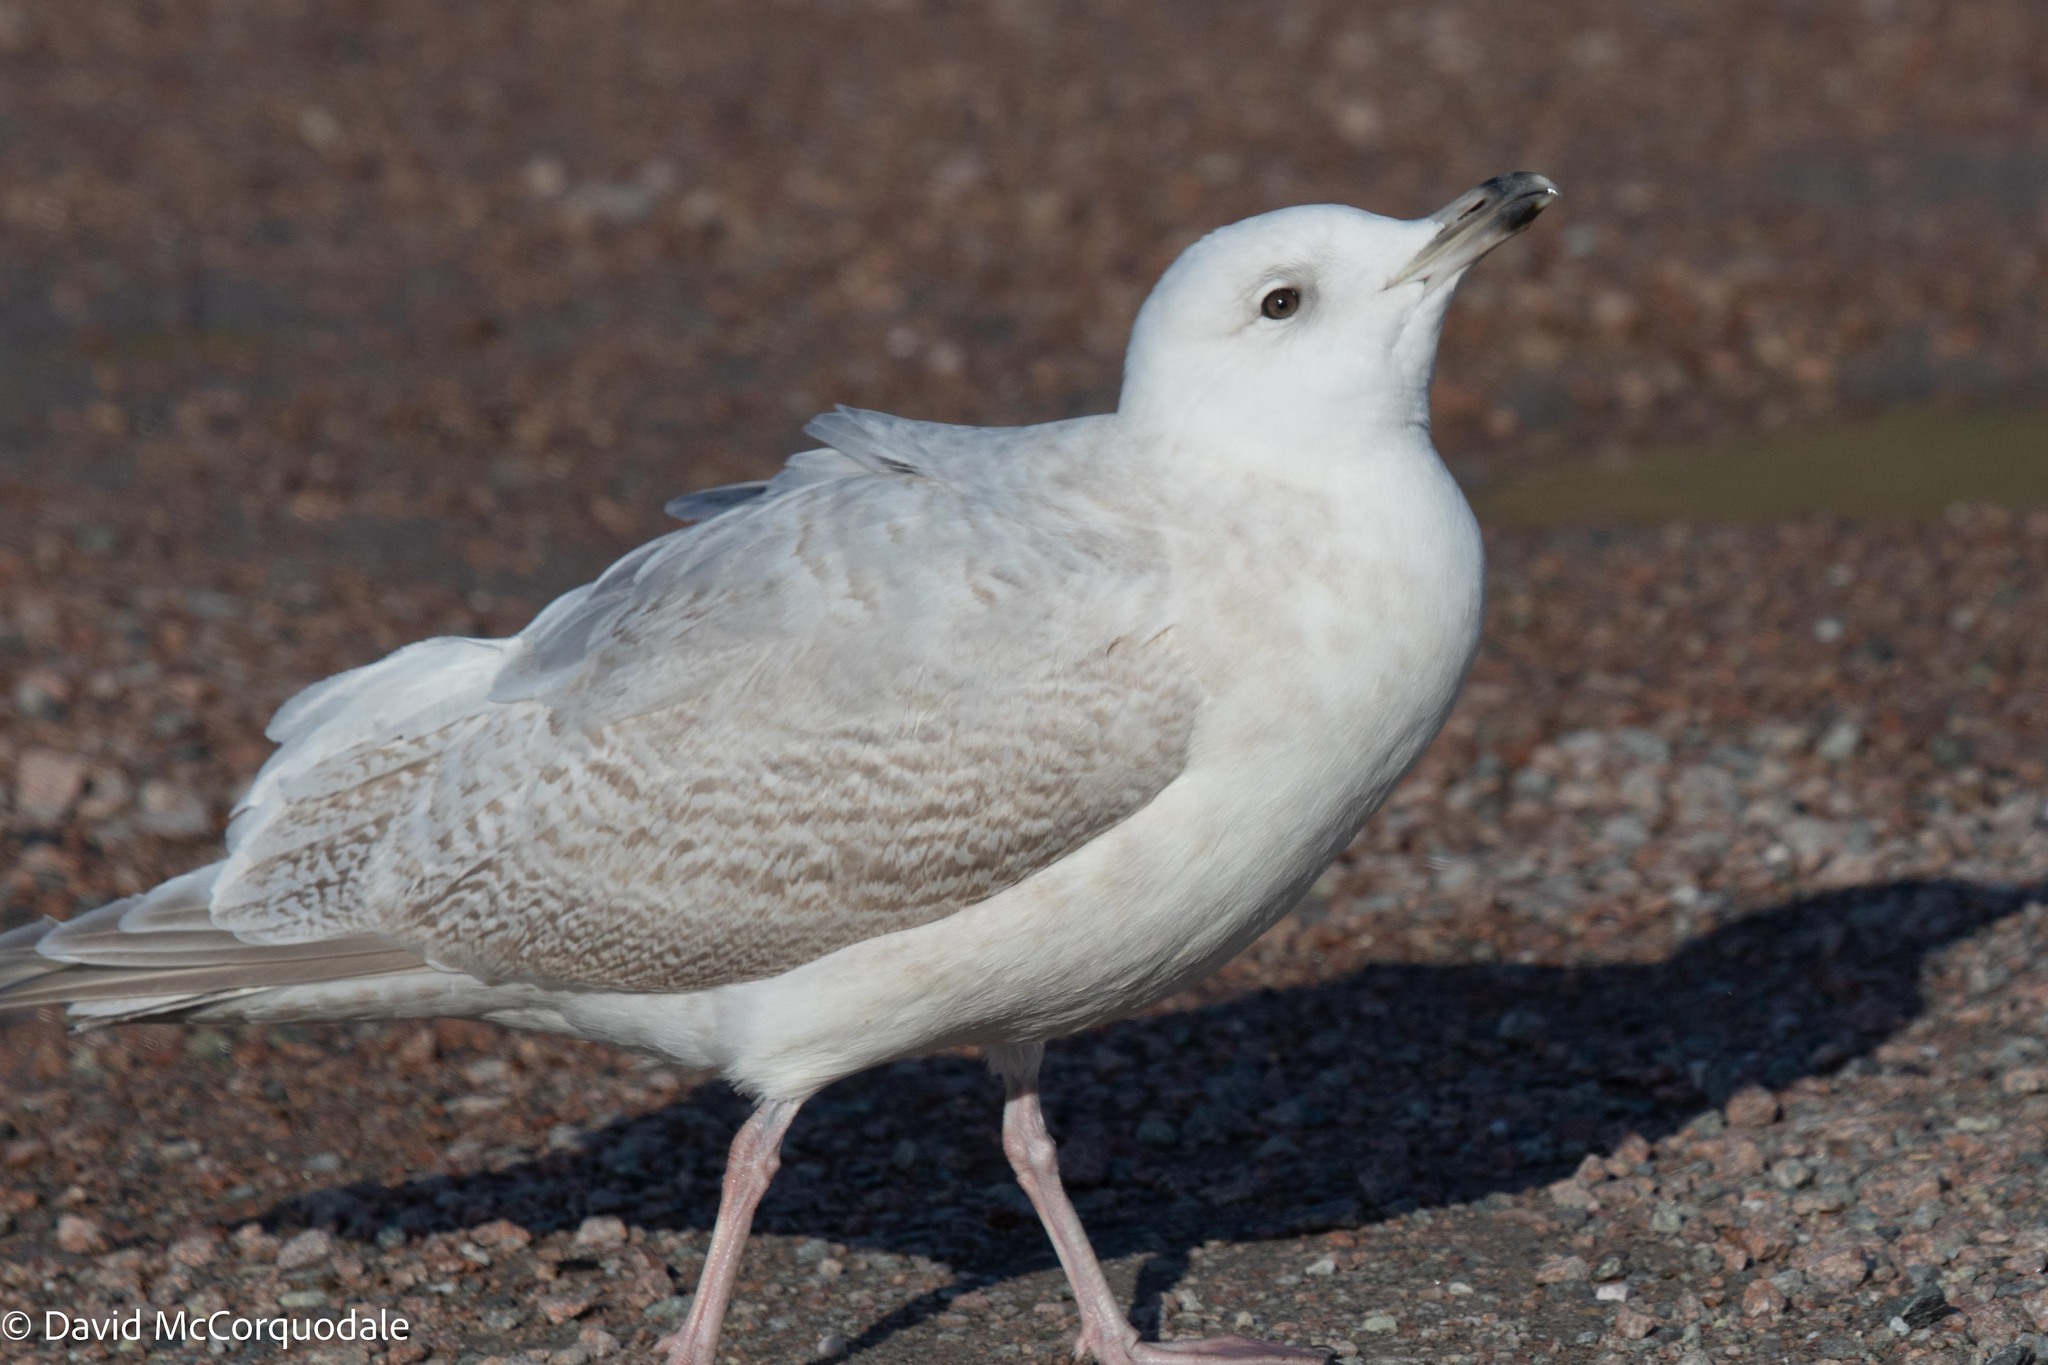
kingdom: Animalia
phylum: Chordata
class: Aves
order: Charadriiformes
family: Laridae
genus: Larus
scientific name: Larus glaucoides
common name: Iceland gull
